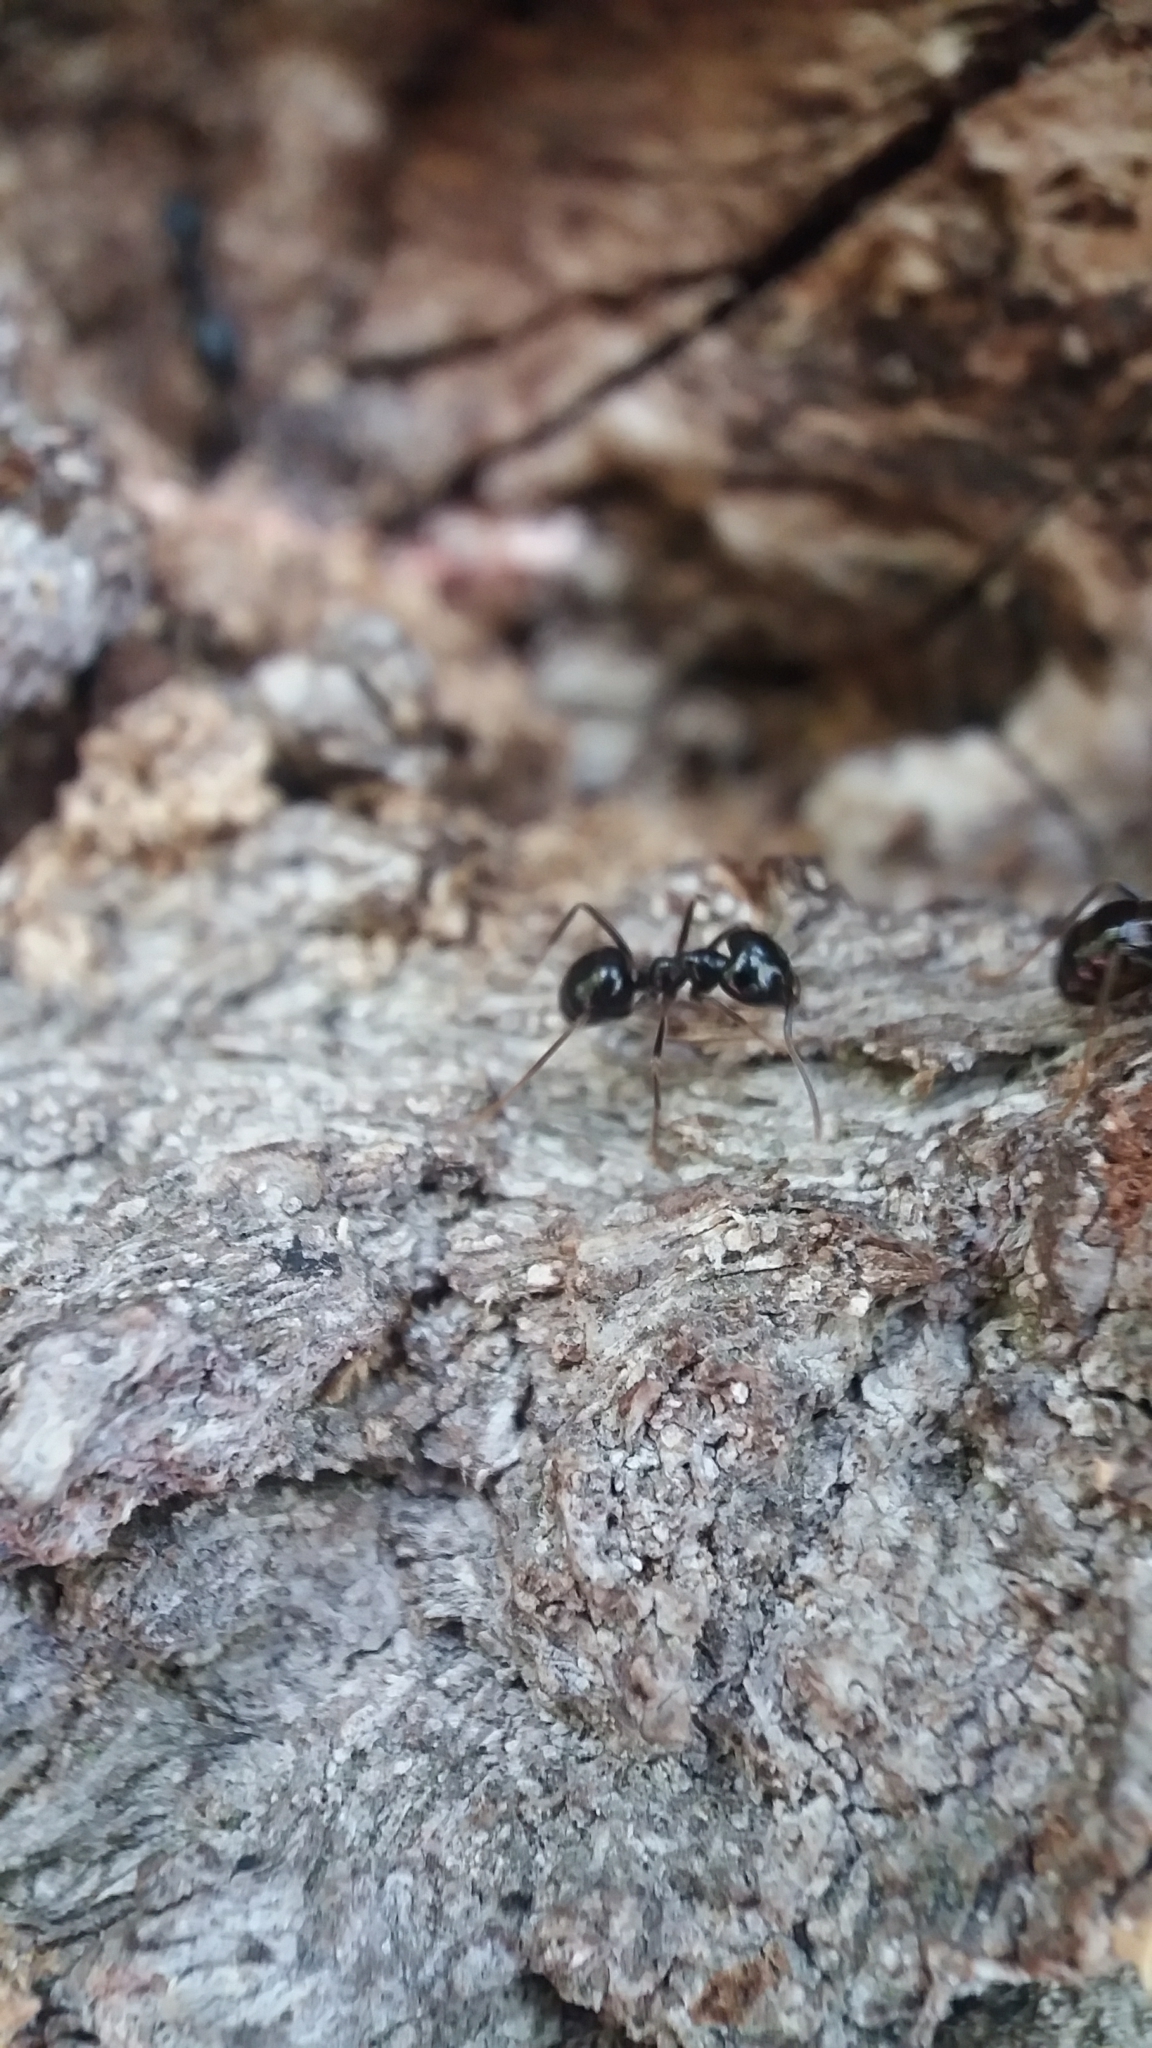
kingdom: Animalia
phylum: Arthropoda
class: Insecta
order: Hymenoptera
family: Formicidae
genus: Lasius
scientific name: Lasius fuliginosus
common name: Jet ant
